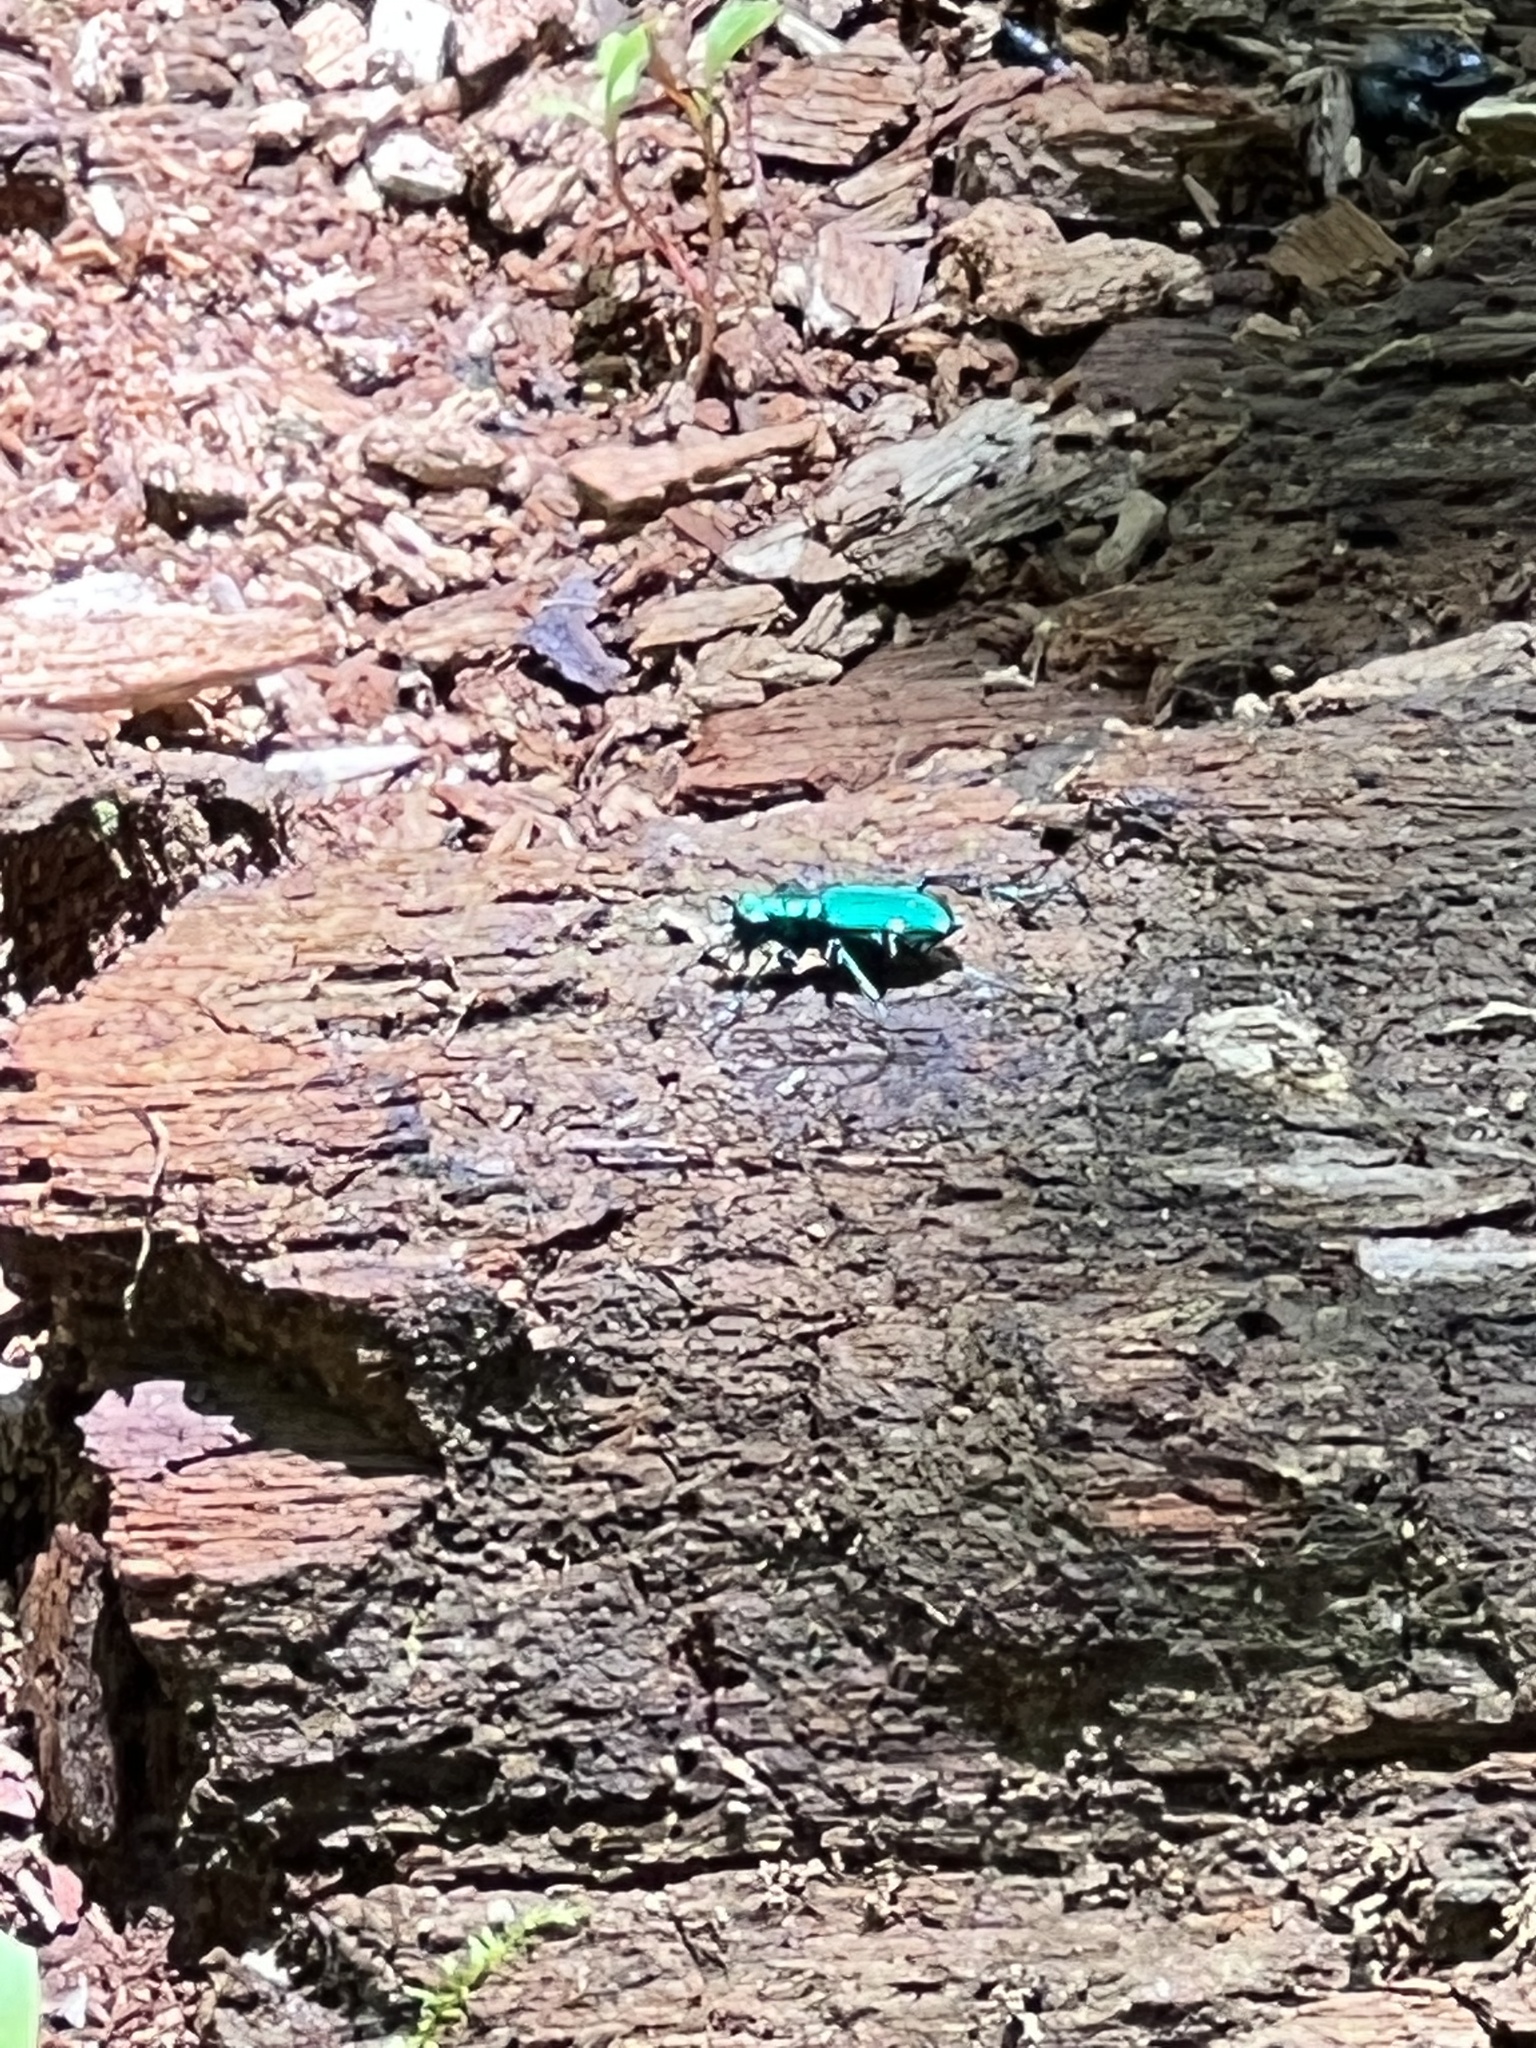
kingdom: Animalia
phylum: Arthropoda
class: Insecta
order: Coleoptera
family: Carabidae
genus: Cicindela
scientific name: Cicindela sexguttata
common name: Six-spotted tiger beetle
